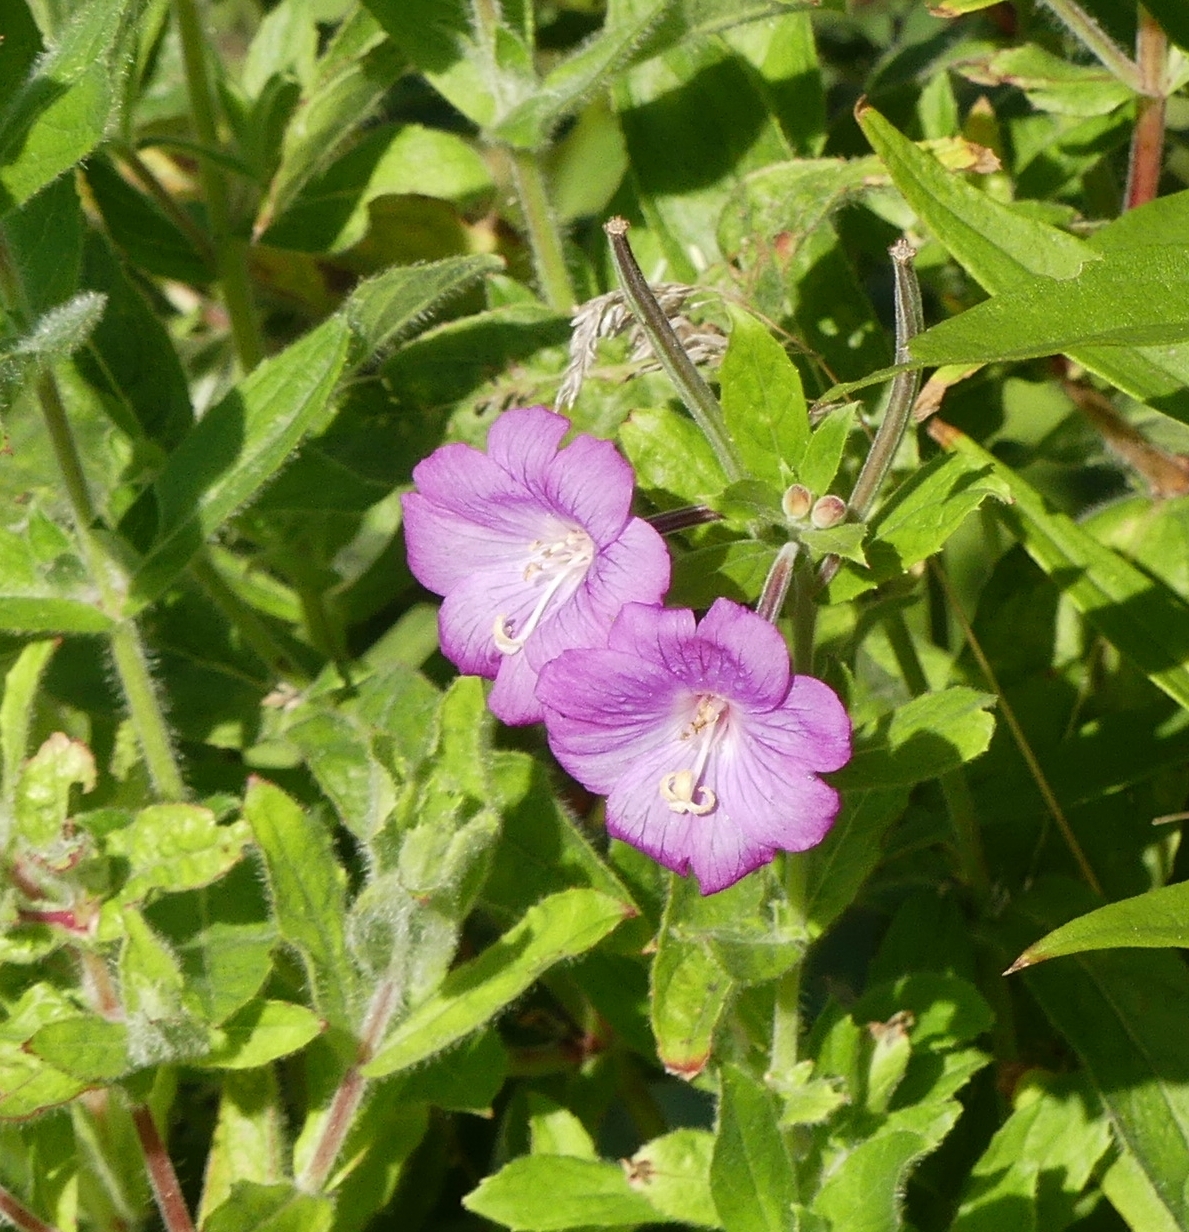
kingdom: Plantae
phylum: Tracheophyta
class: Magnoliopsida
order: Myrtales
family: Onagraceae
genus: Epilobium
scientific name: Epilobium hirsutum
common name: Great willowherb
